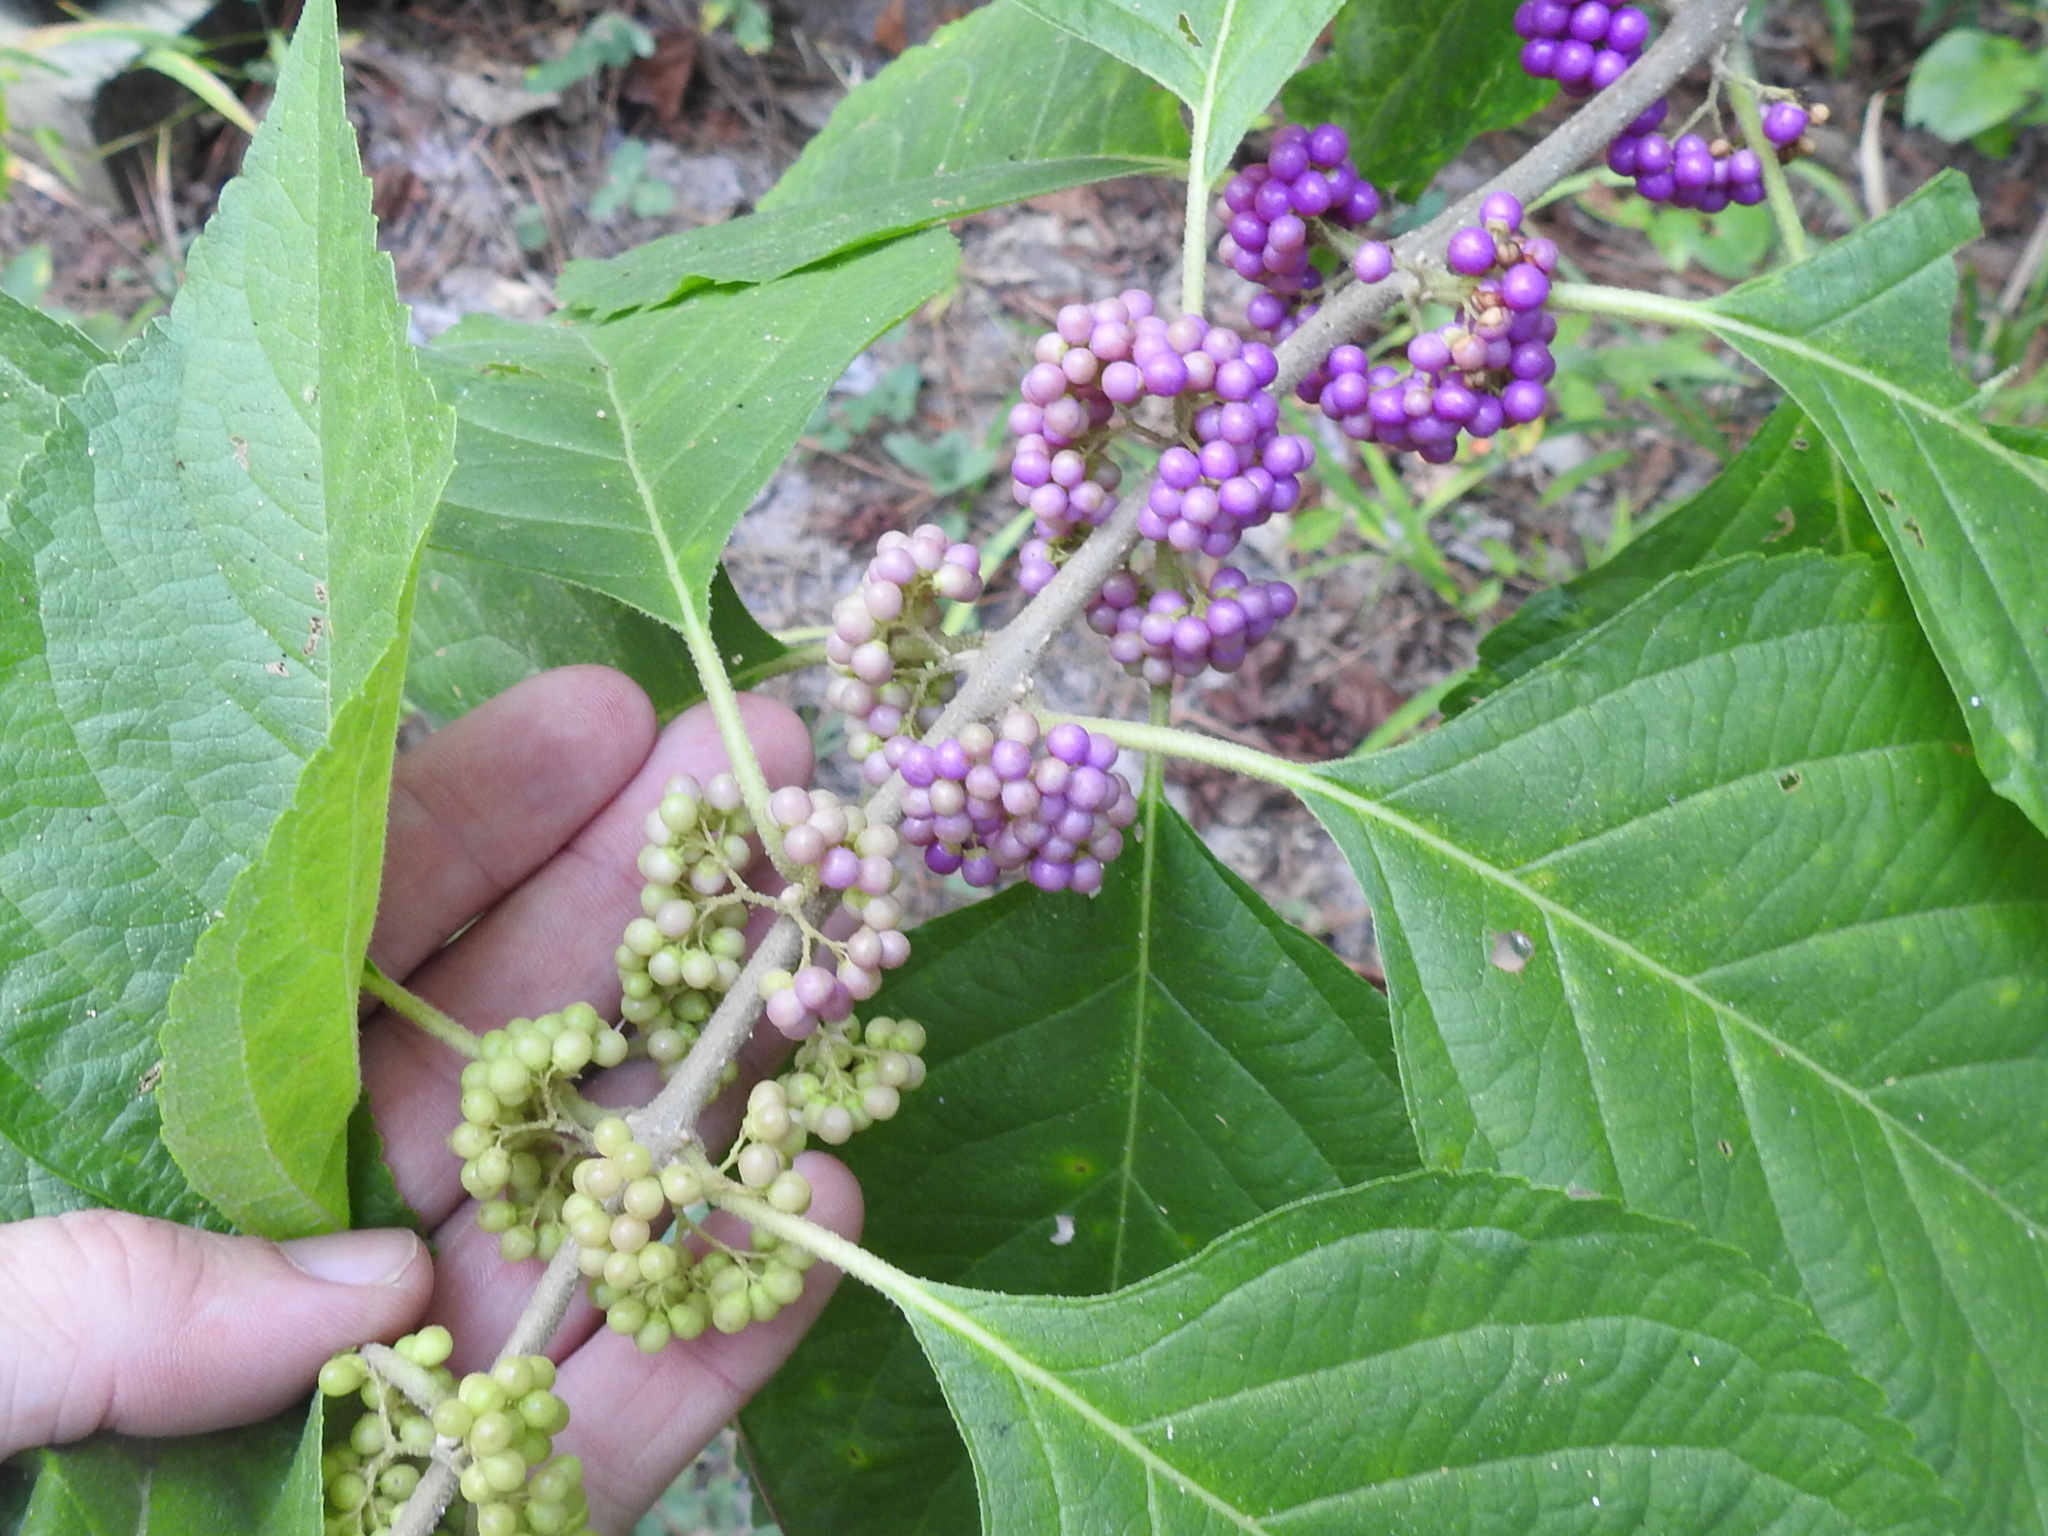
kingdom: Plantae
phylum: Tracheophyta
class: Magnoliopsida
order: Lamiales
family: Lamiaceae
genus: Callicarpa
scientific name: Callicarpa americana
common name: American beautyberry
